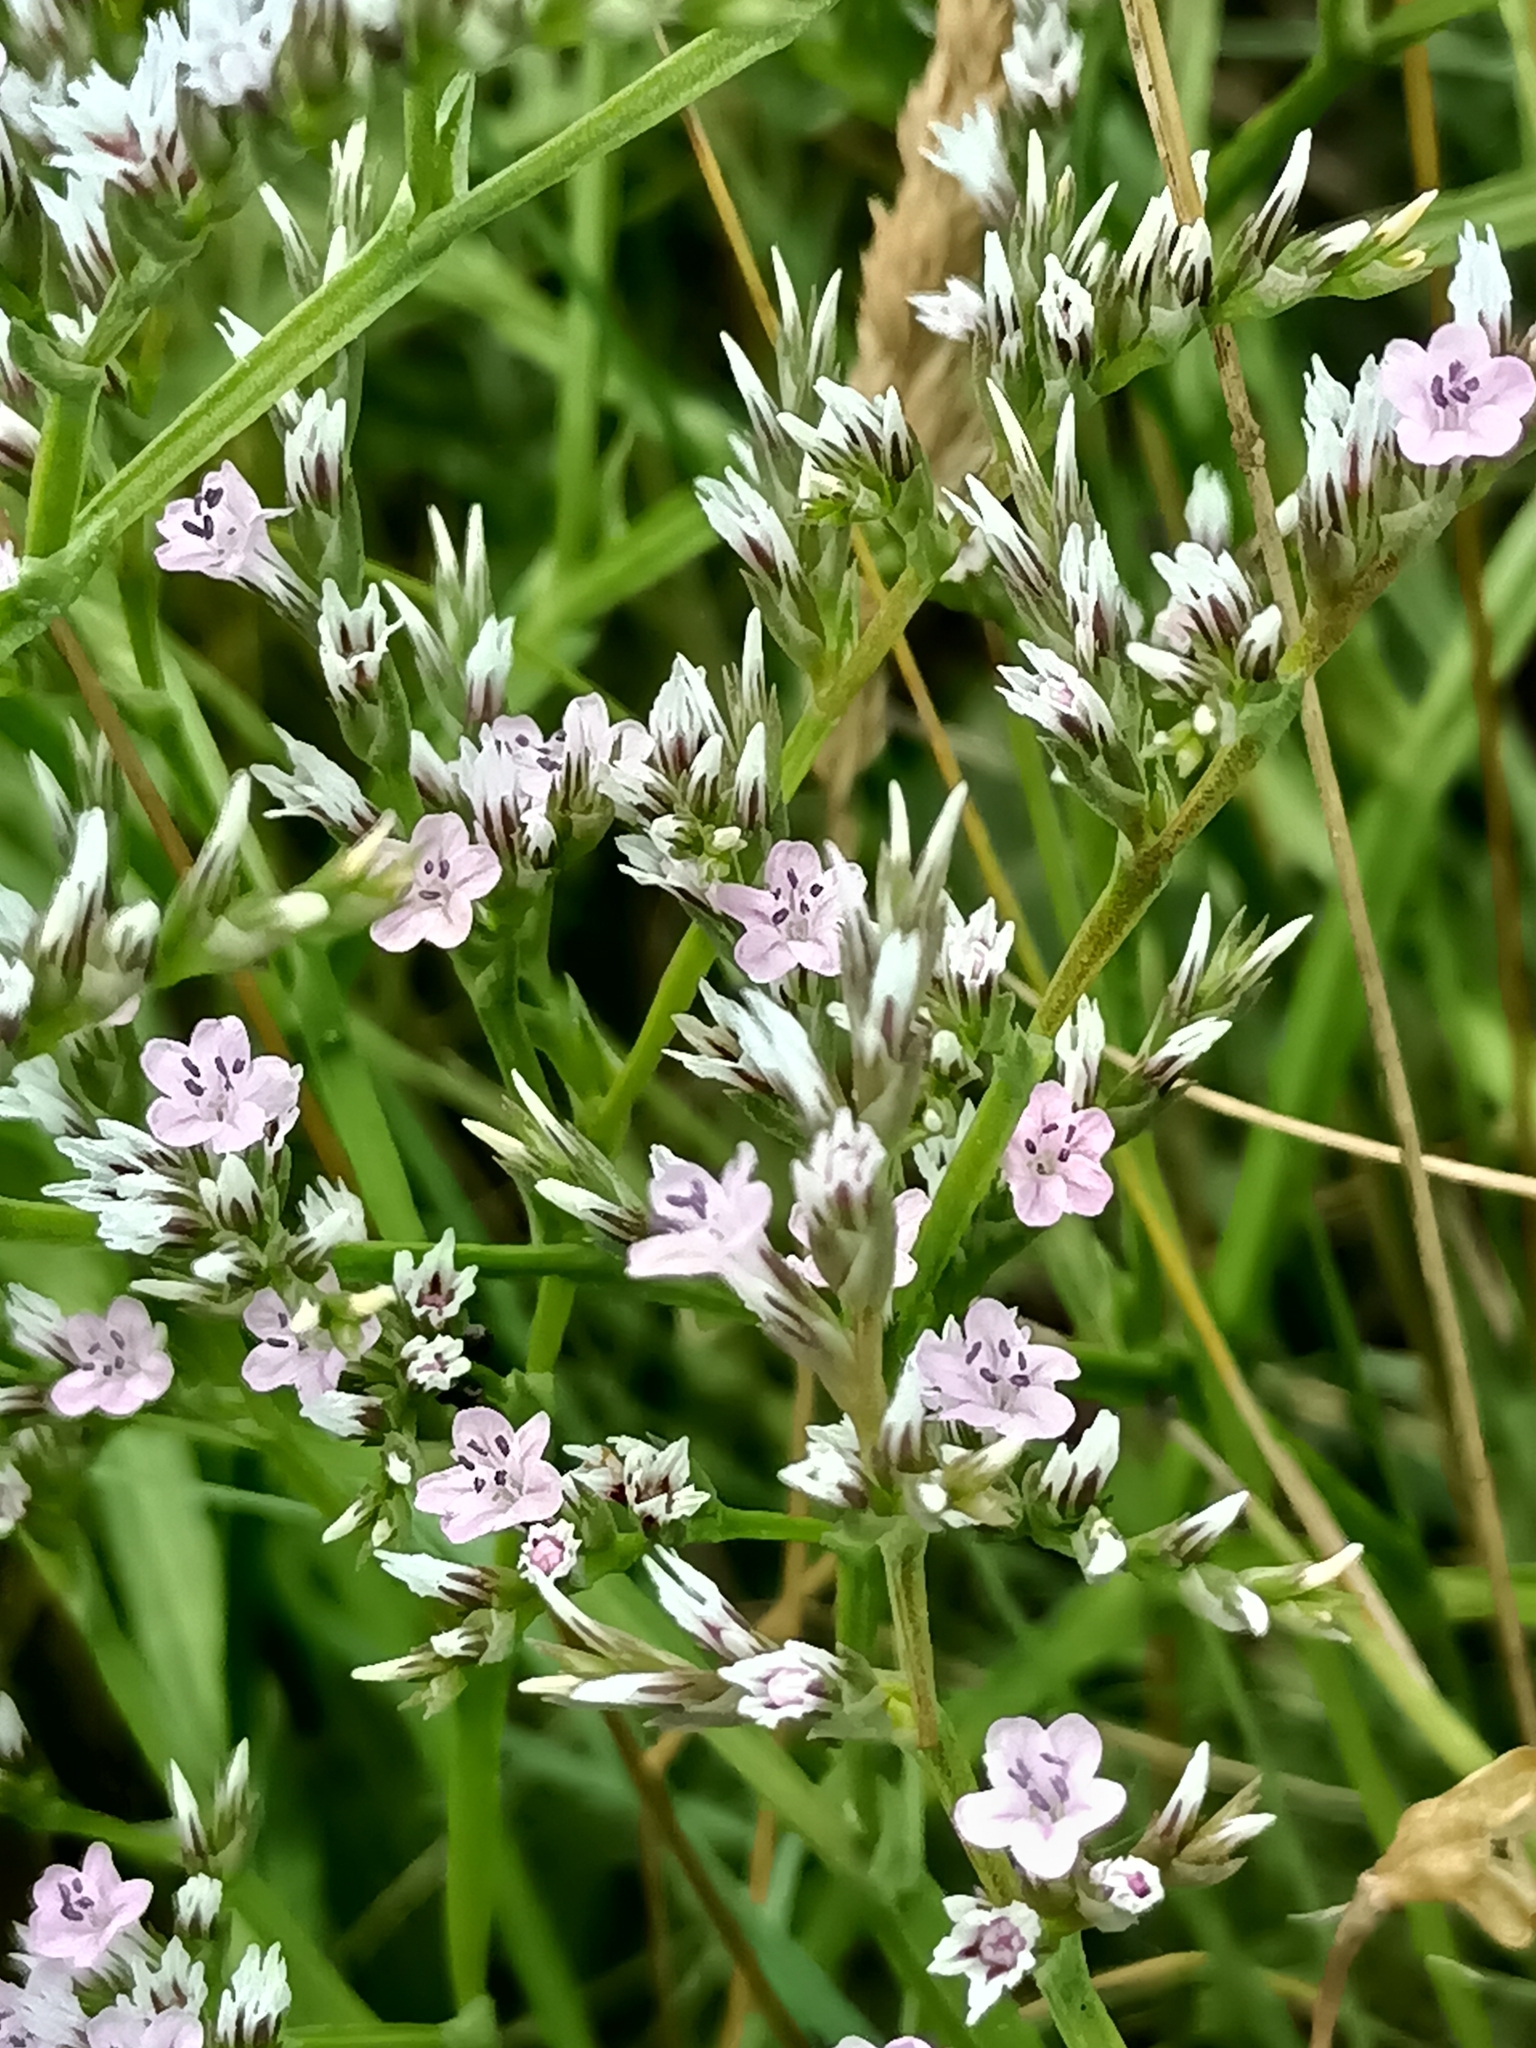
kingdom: Plantae
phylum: Tracheophyta
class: Magnoliopsida
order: Caryophyllales
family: Plumbaginaceae
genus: Goniolimon
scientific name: Goniolimon tataricum
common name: Statice
